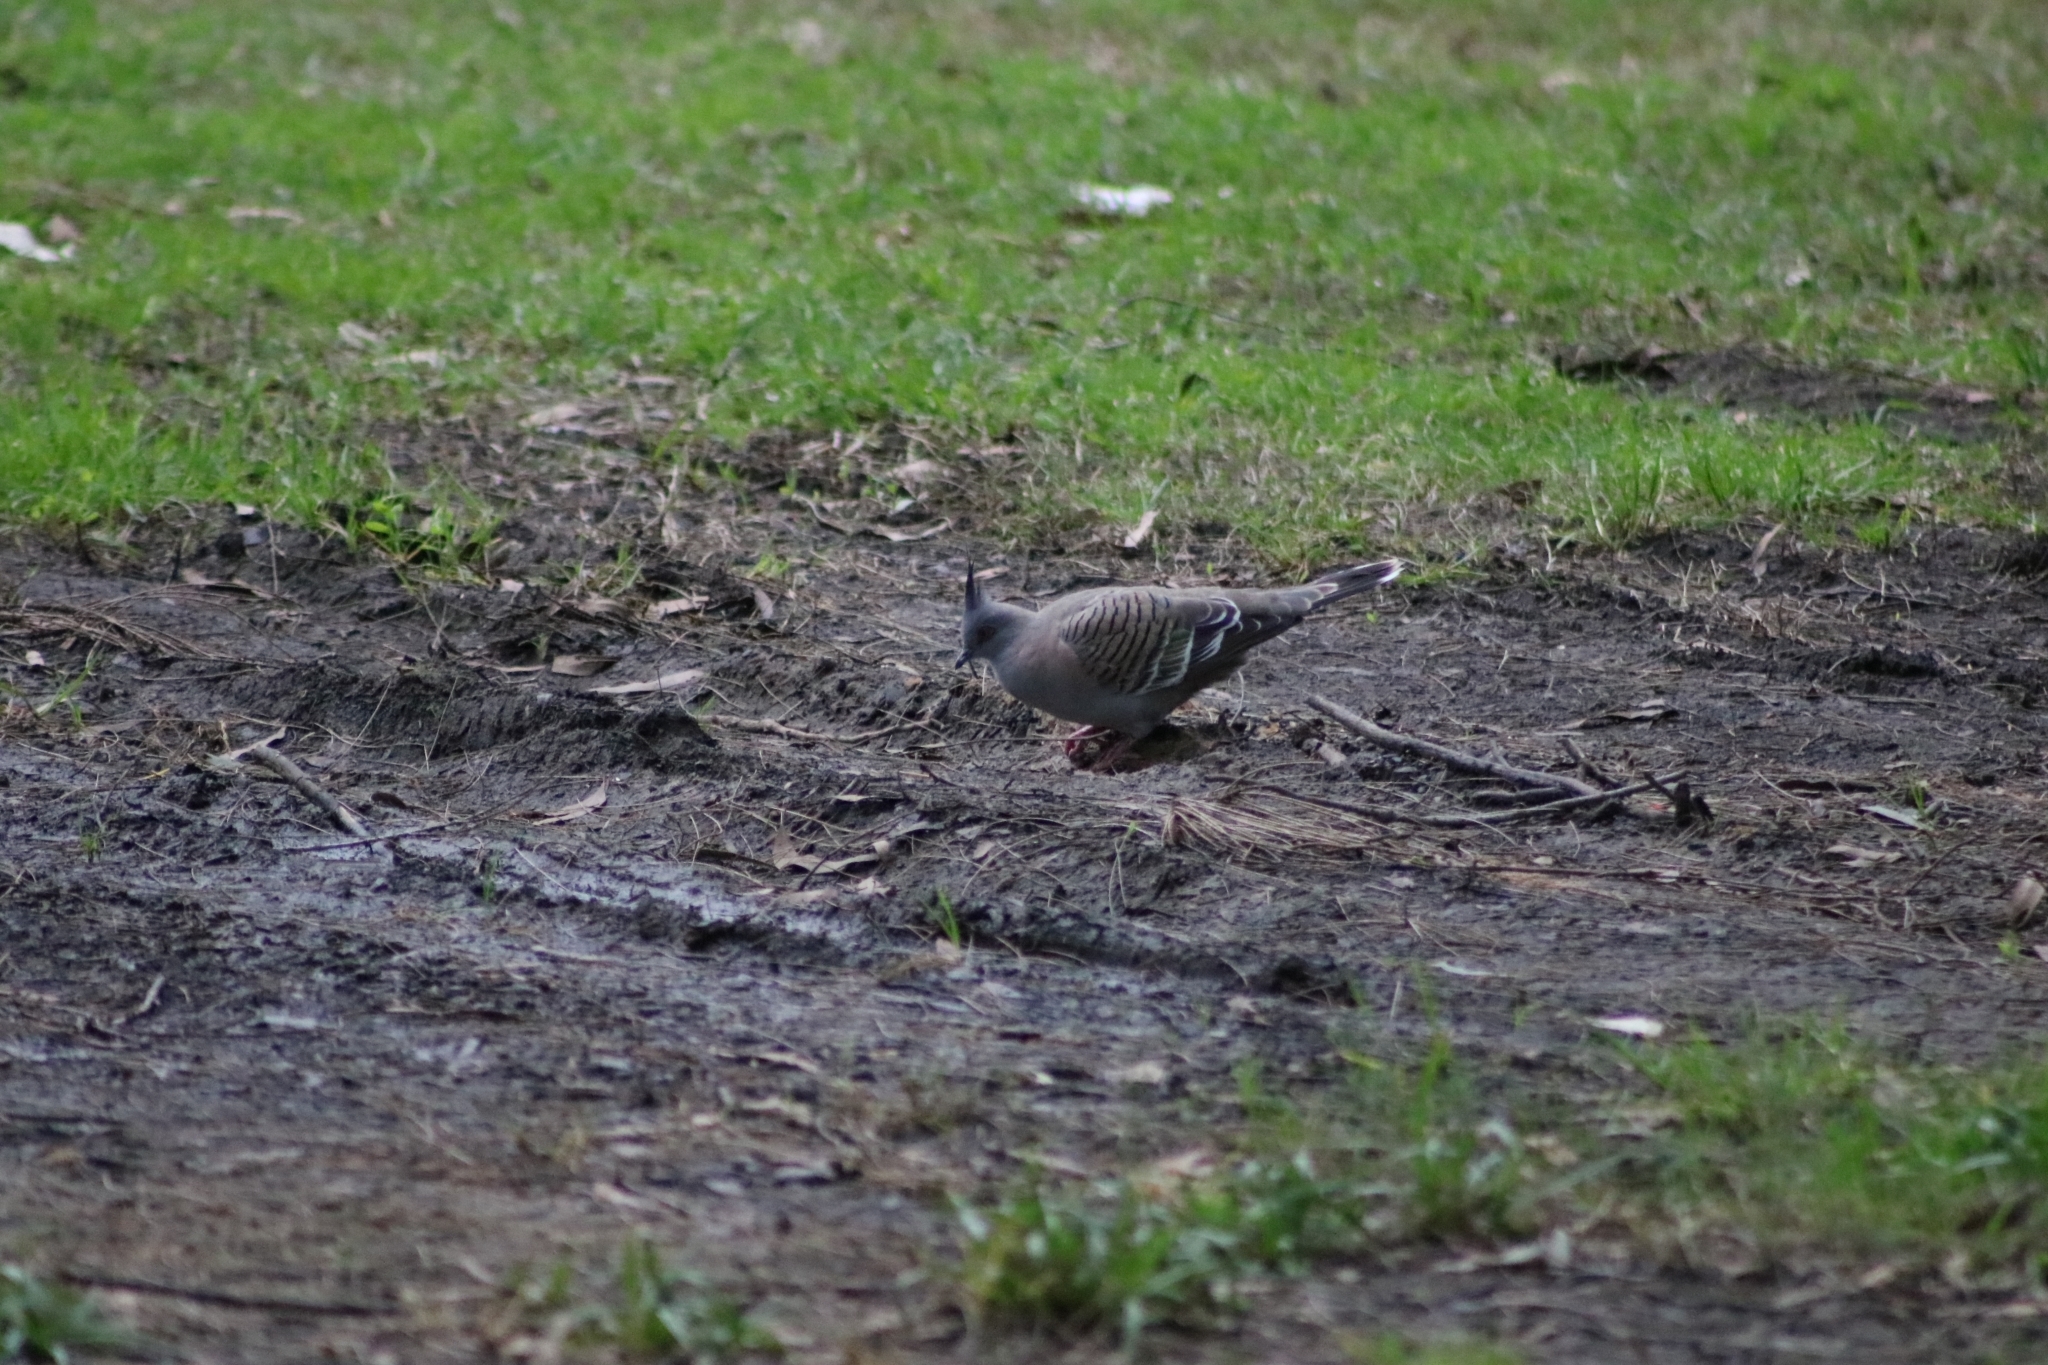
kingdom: Animalia
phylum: Chordata
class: Aves
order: Columbiformes
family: Columbidae
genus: Ocyphaps
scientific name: Ocyphaps lophotes
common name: Crested pigeon
